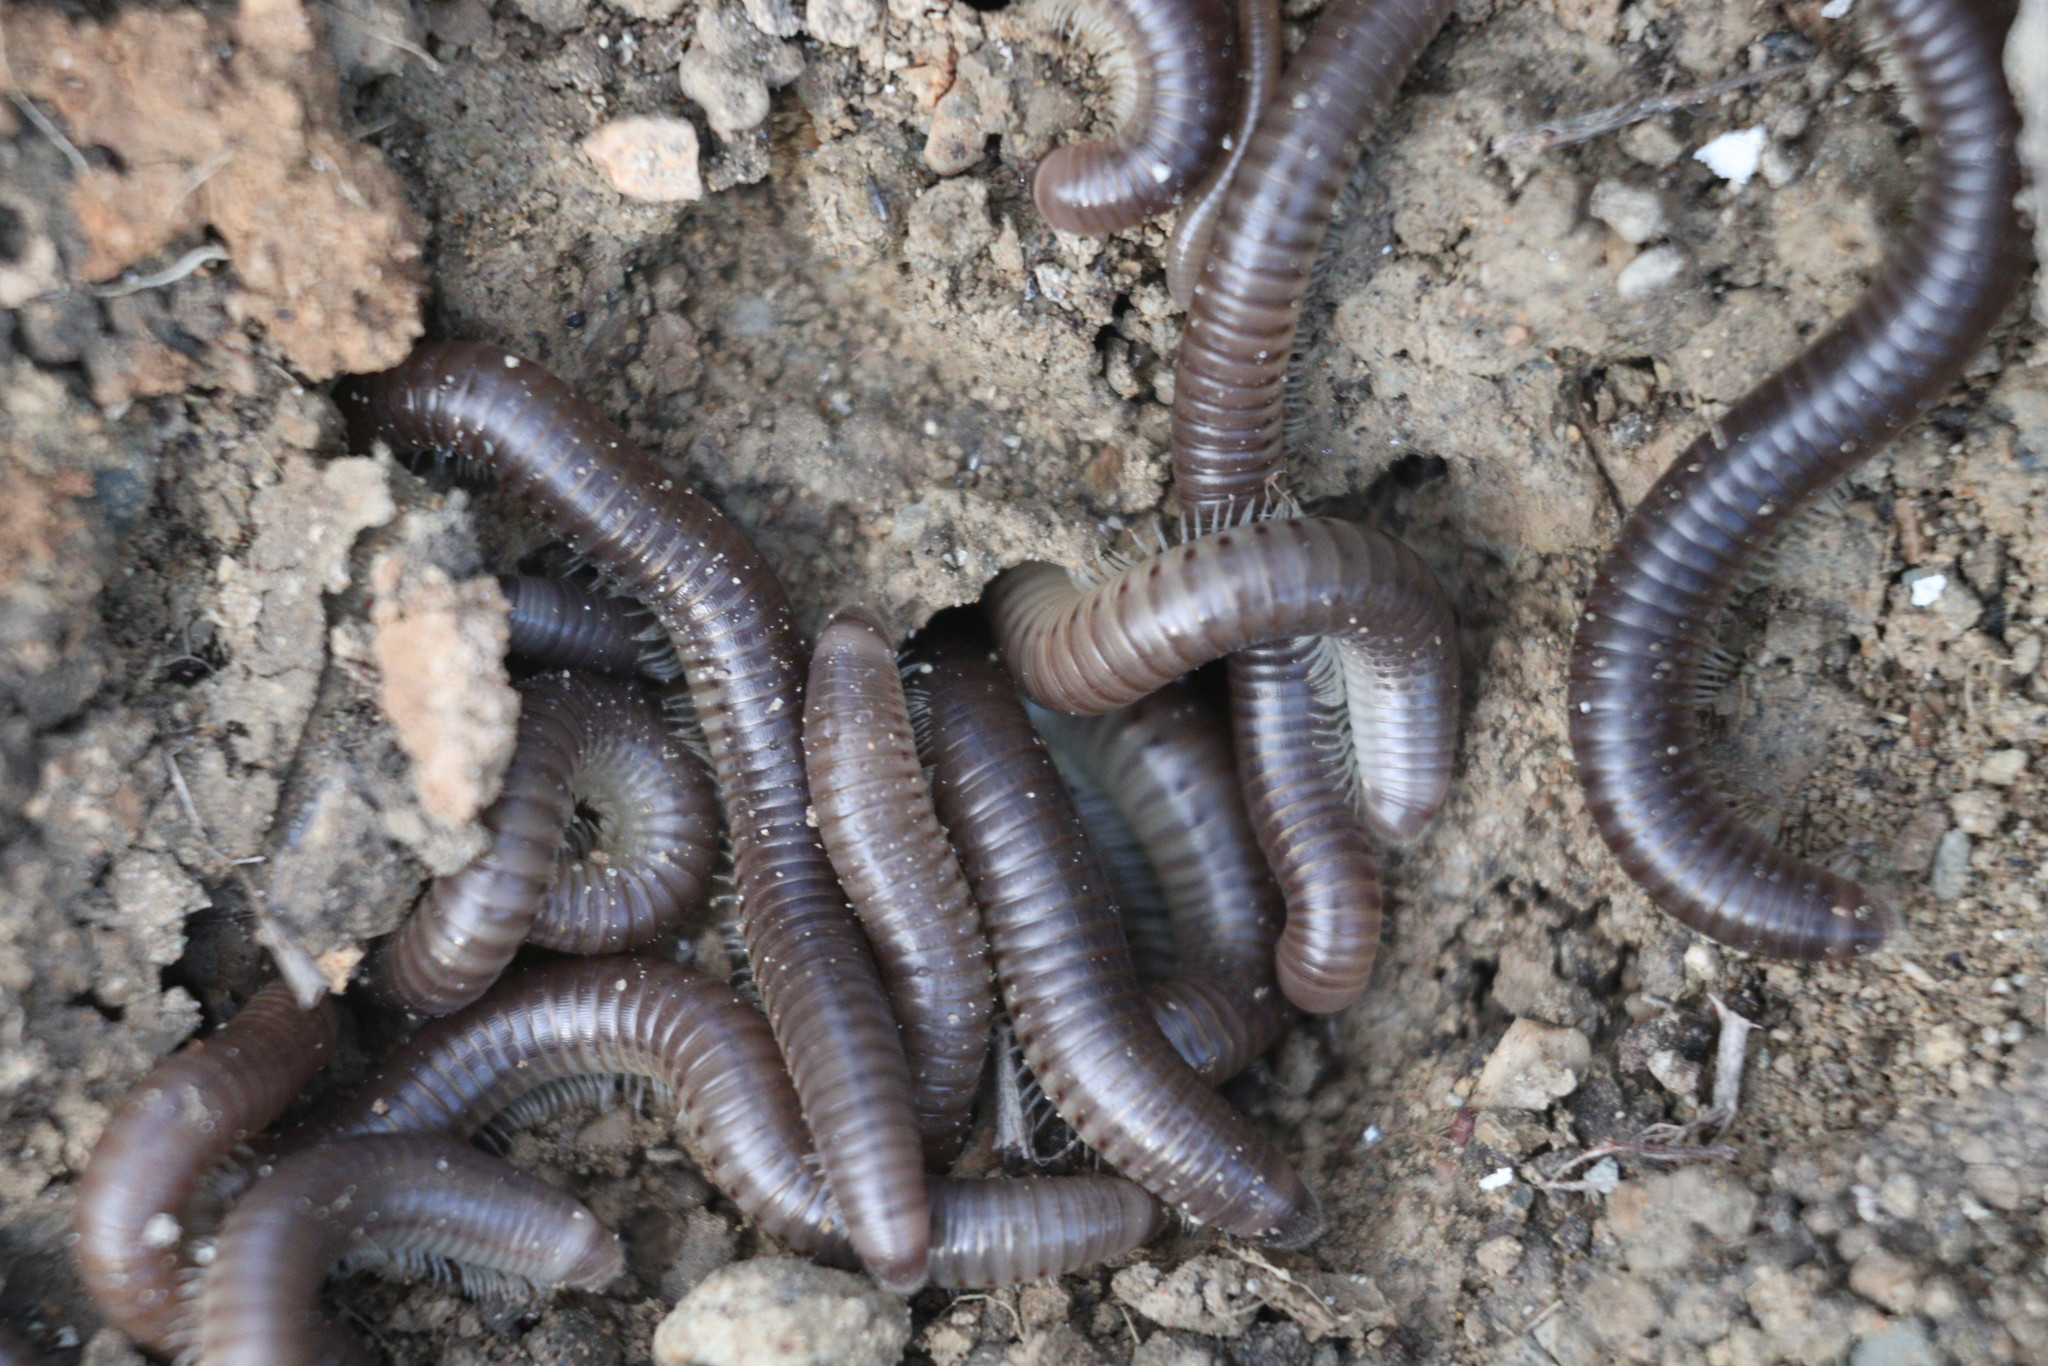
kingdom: Animalia
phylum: Arthropoda
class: Diplopoda
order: Julida
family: Julidae
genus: Pachyiulus
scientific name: Pachyiulus flavipes
